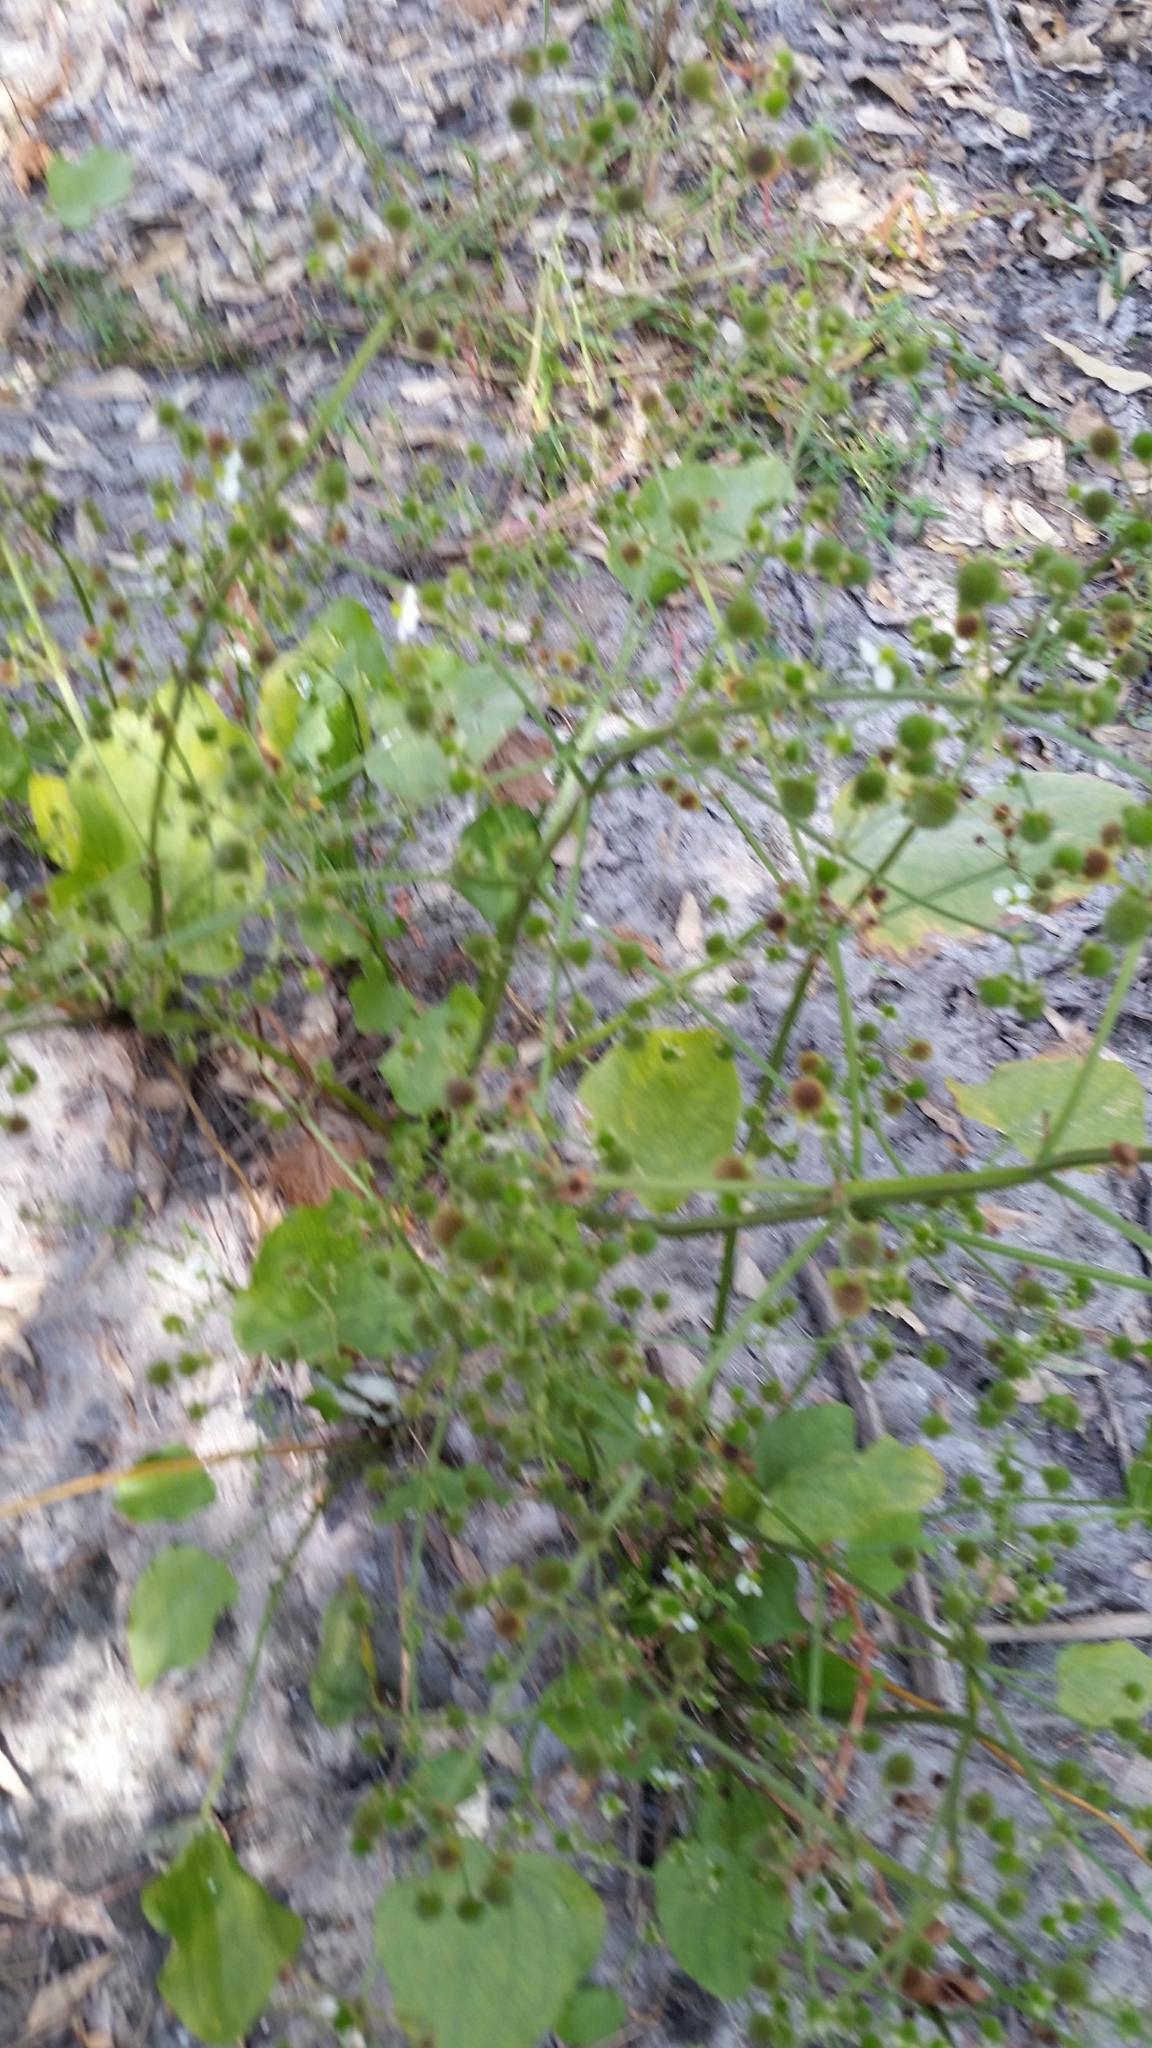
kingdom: Plantae
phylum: Tracheophyta
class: Liliopsida
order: Alismatales
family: Alismataceae
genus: Echinodorus
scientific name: Echinodorus berteroi
